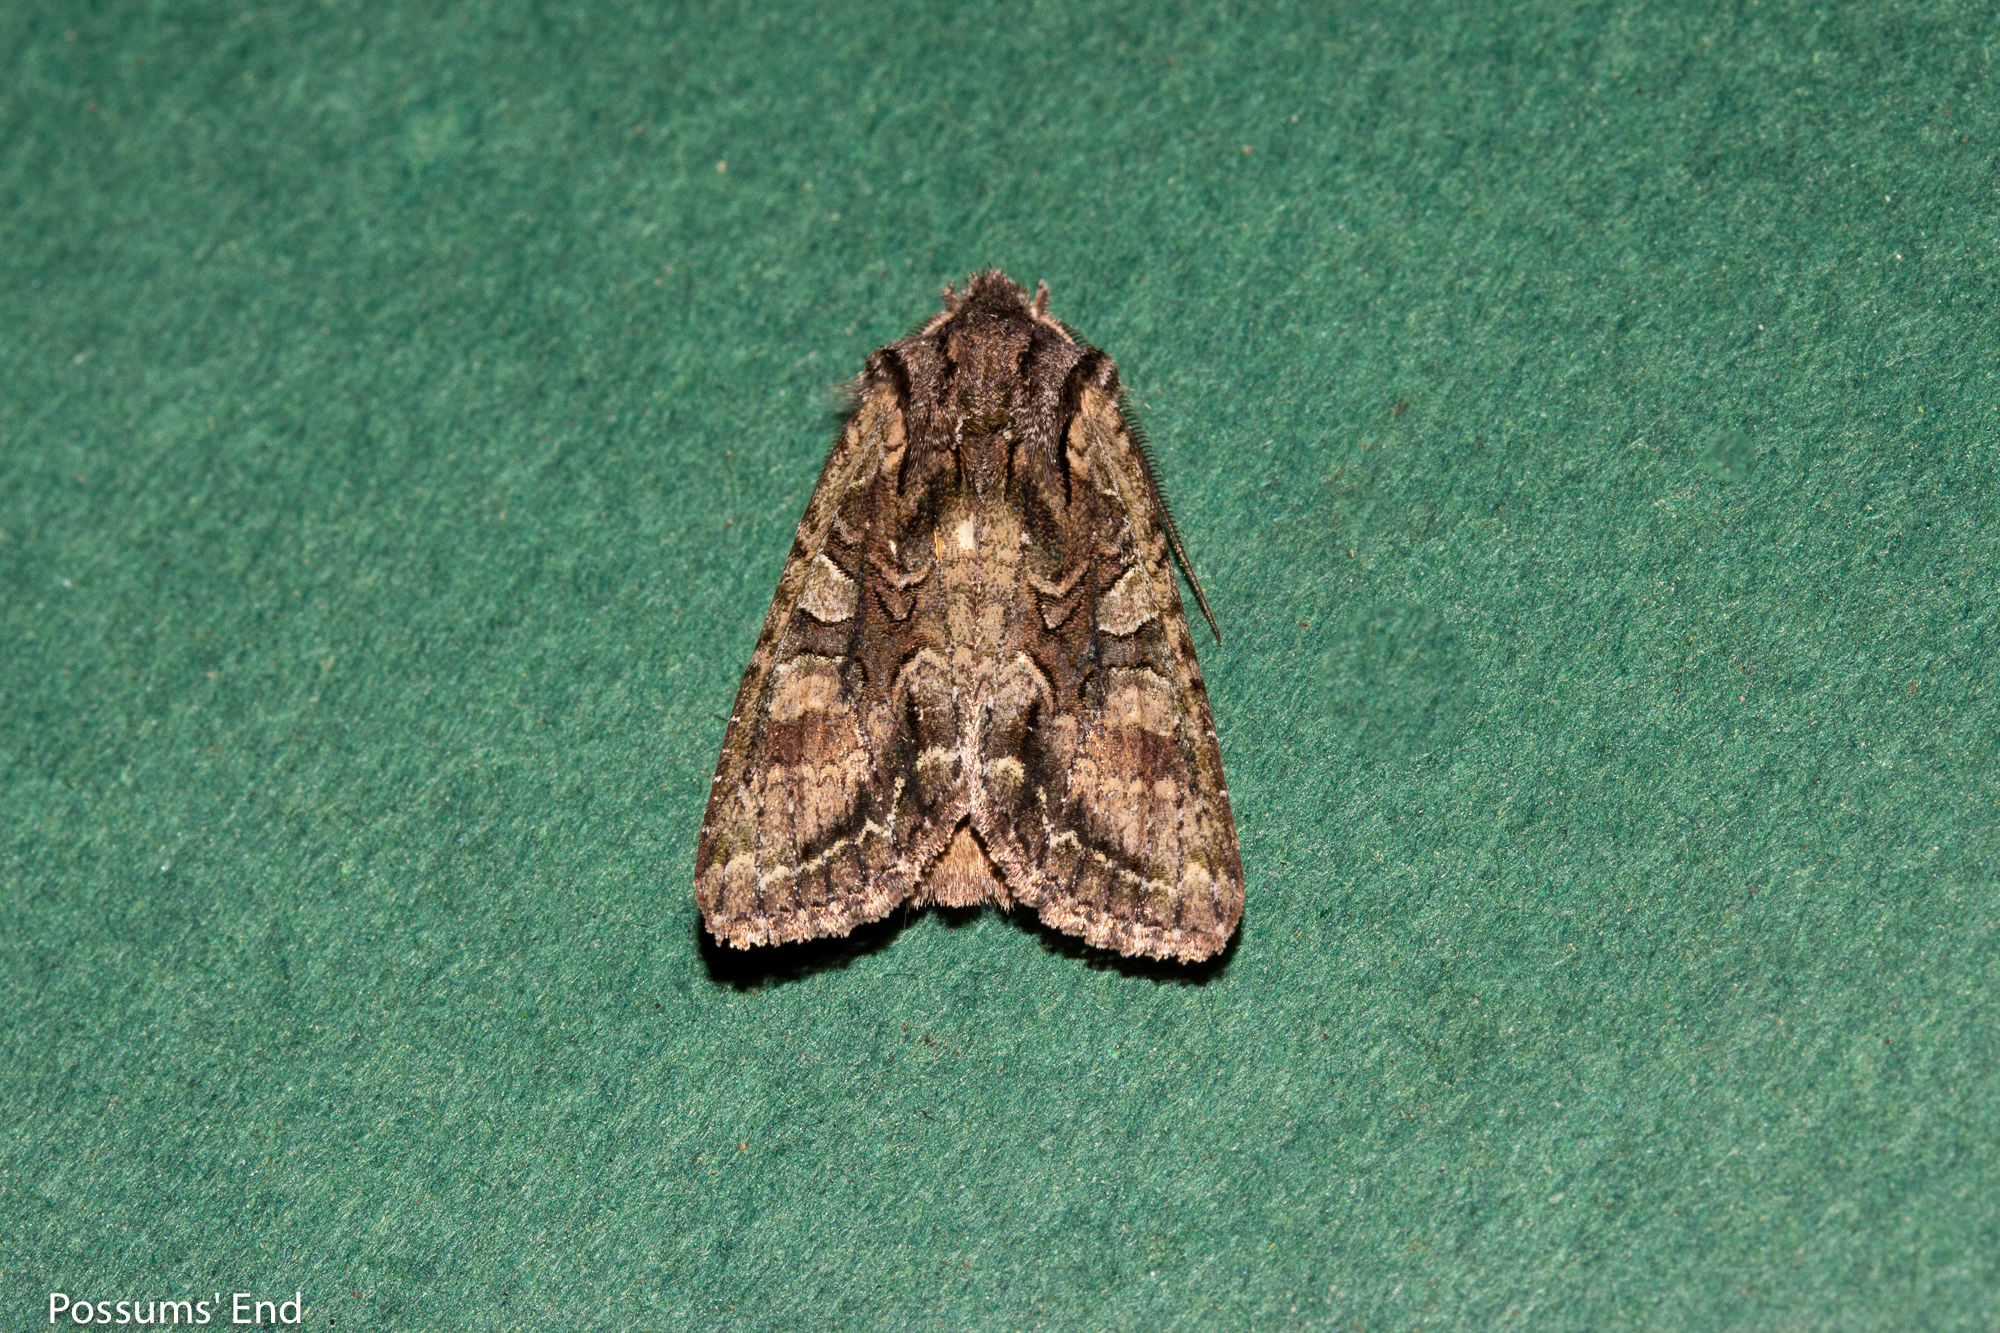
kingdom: Animalia
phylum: Arthropoda
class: Insecta
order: Lepidoptera
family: Noctuidae
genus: Ichneutica
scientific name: Ichneutica mutans
